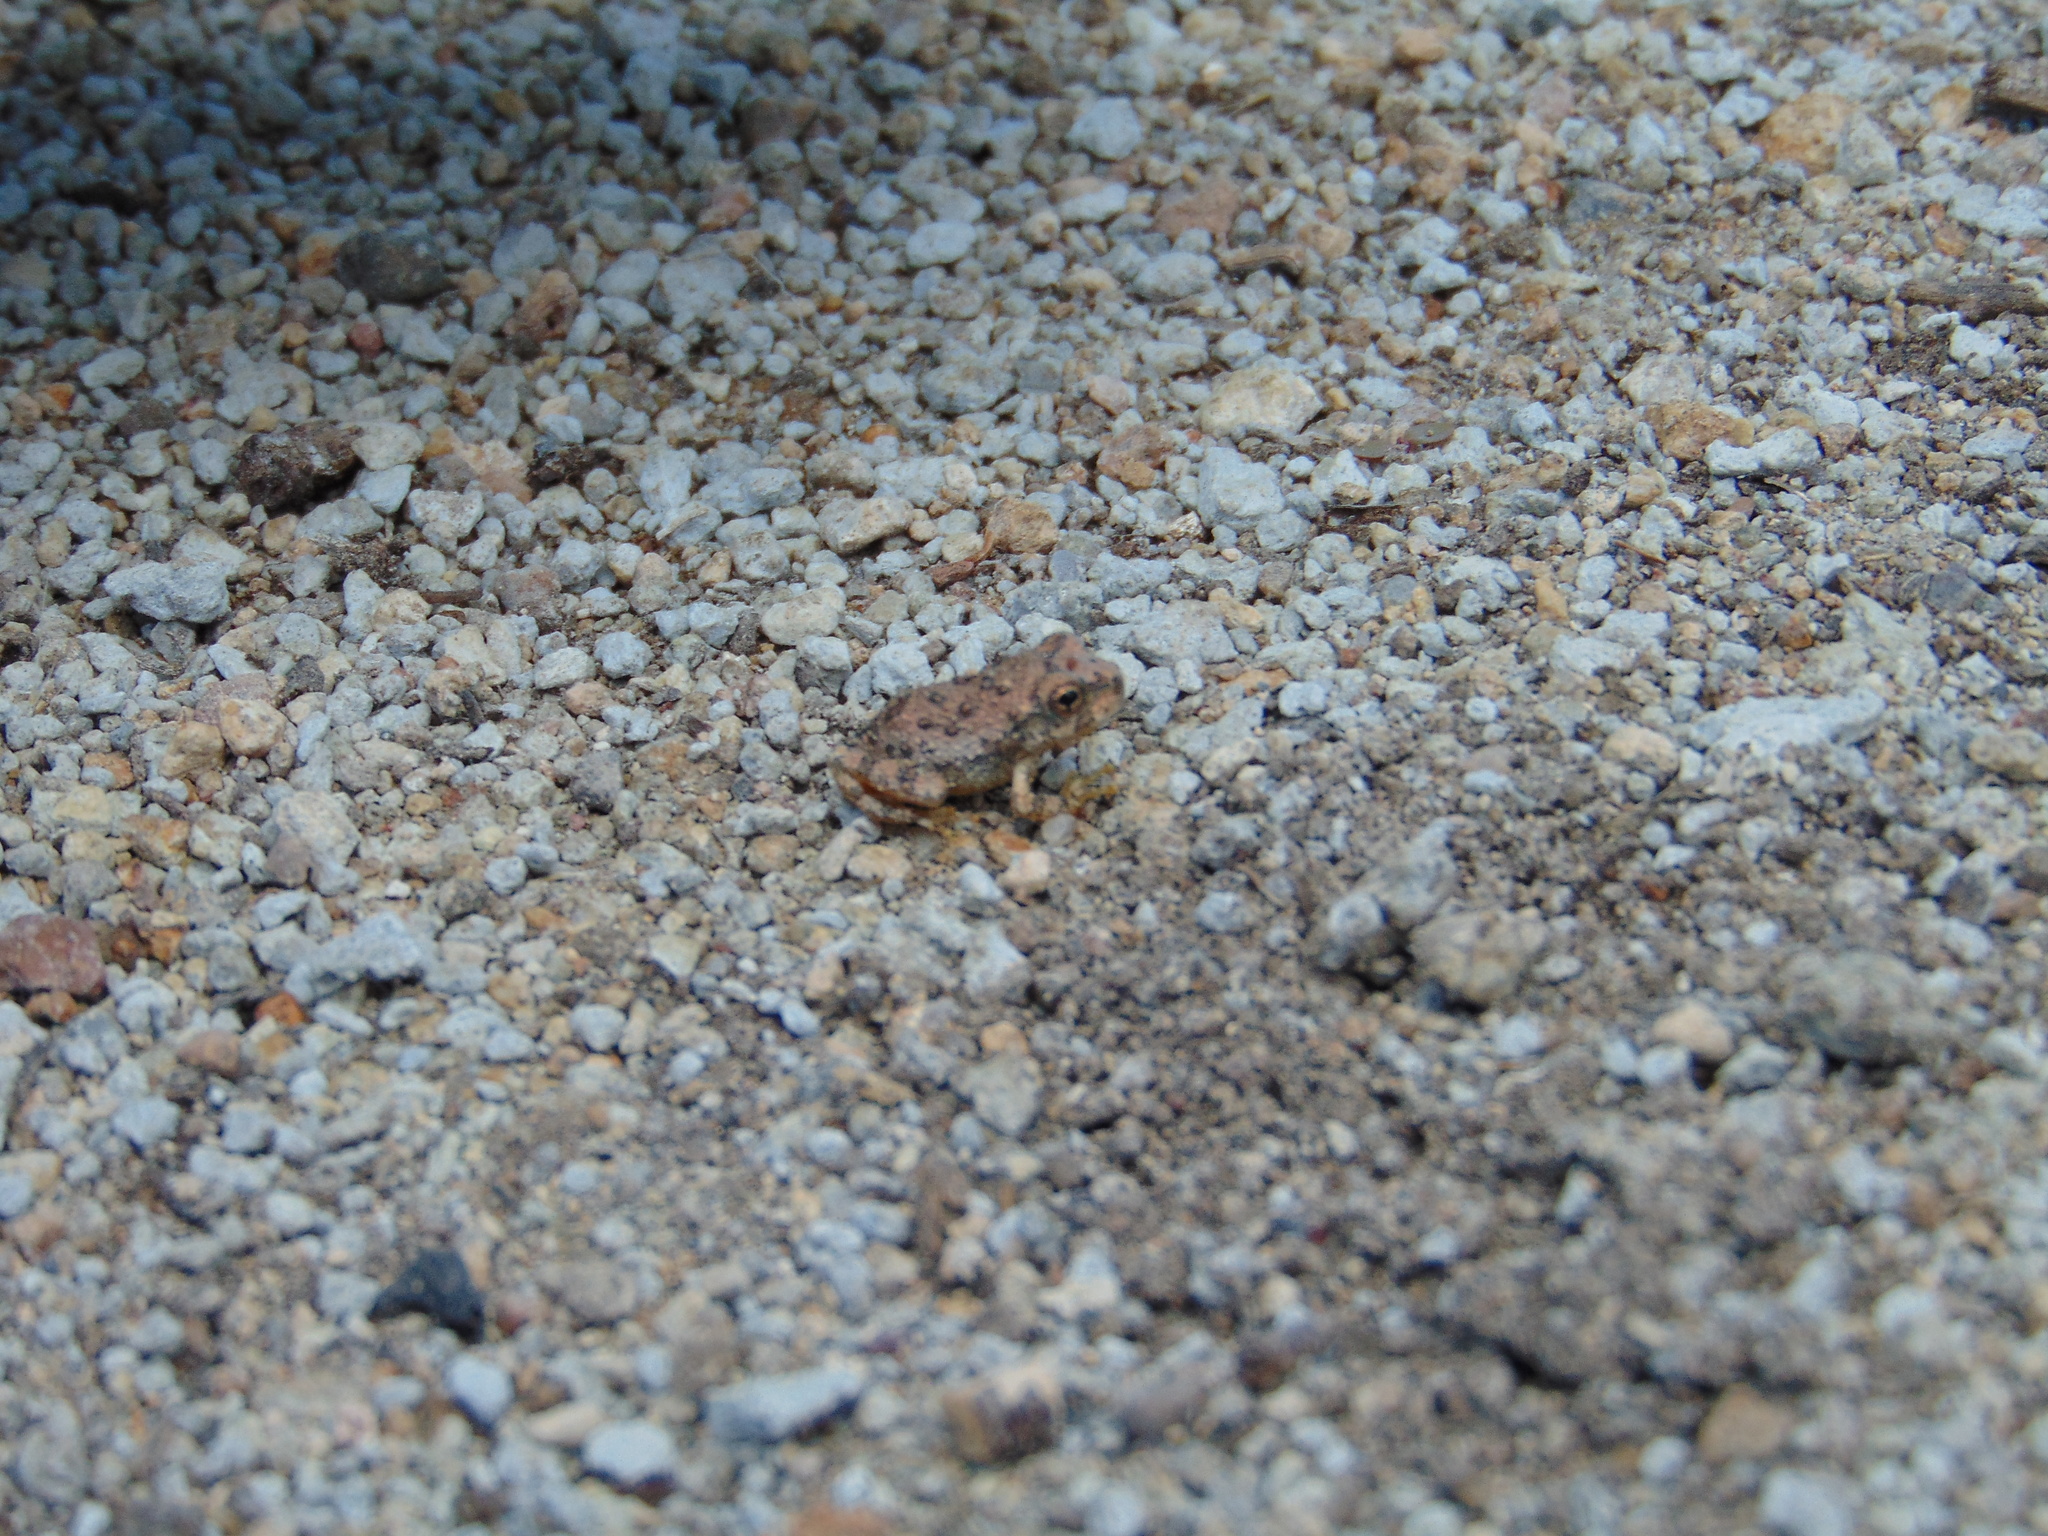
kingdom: Animalia
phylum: Chordata
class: Amphibia
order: Anura
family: Hylidae
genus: Dryophytes
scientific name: Dryophytes arenicolor
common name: Canyon treefrog
